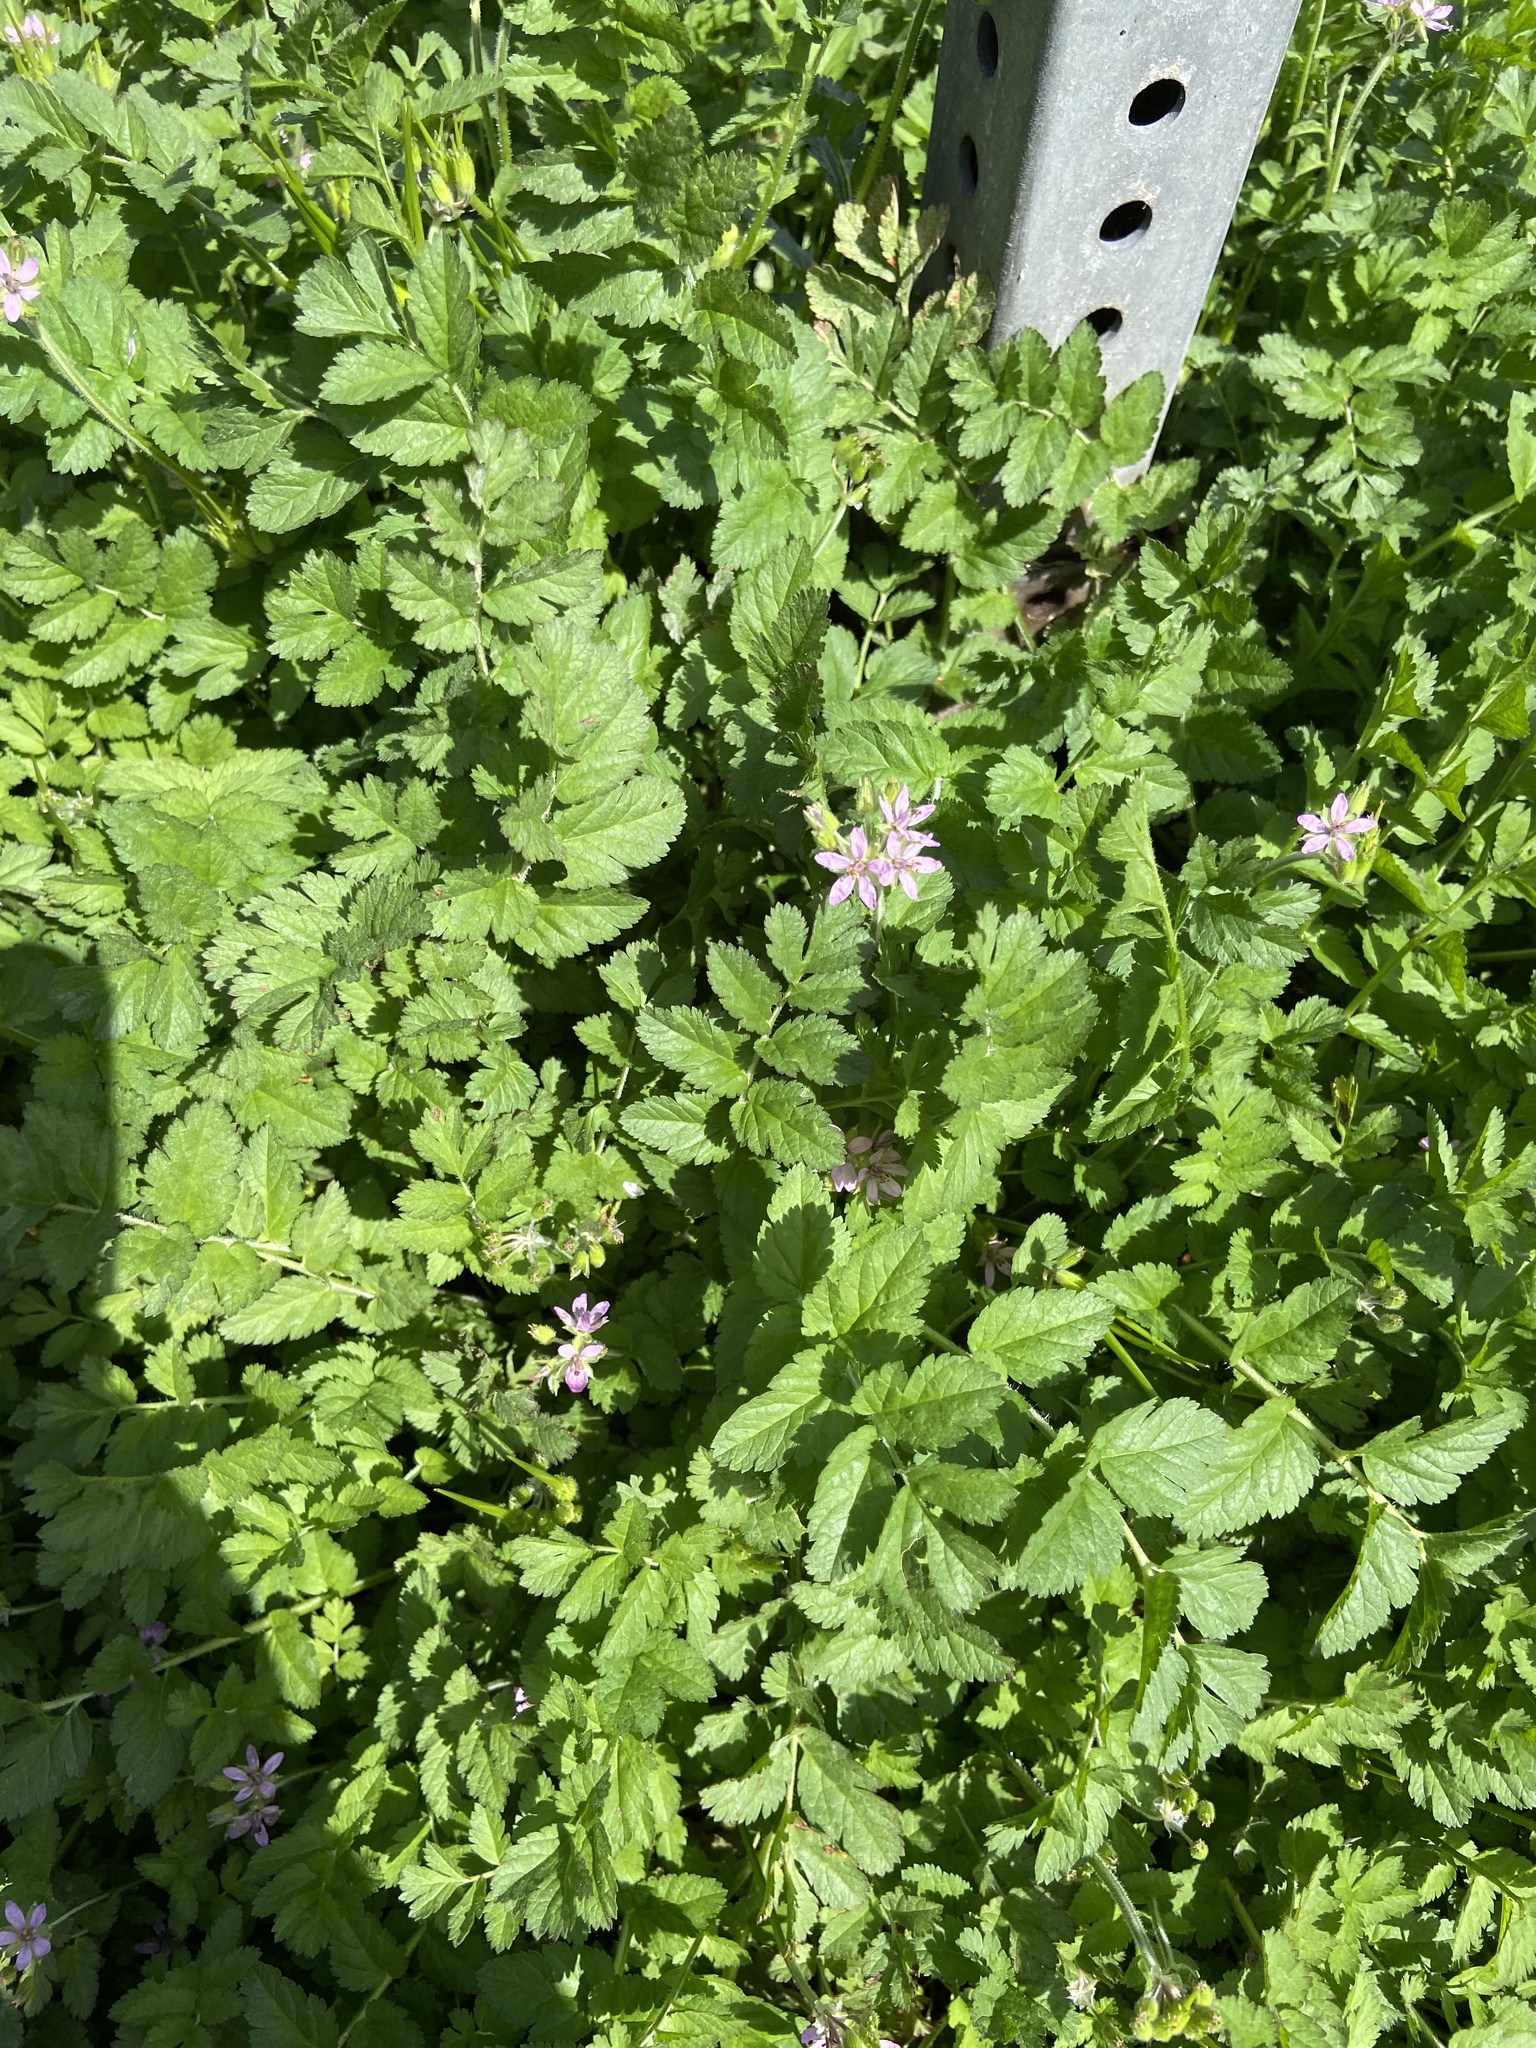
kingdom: Plantae
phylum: Tracheophyta
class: Magnoliopsida
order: Geraniales
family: Geraniaceae
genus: Erodium
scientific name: Erodium moschatum
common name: Musk stork's-bill
